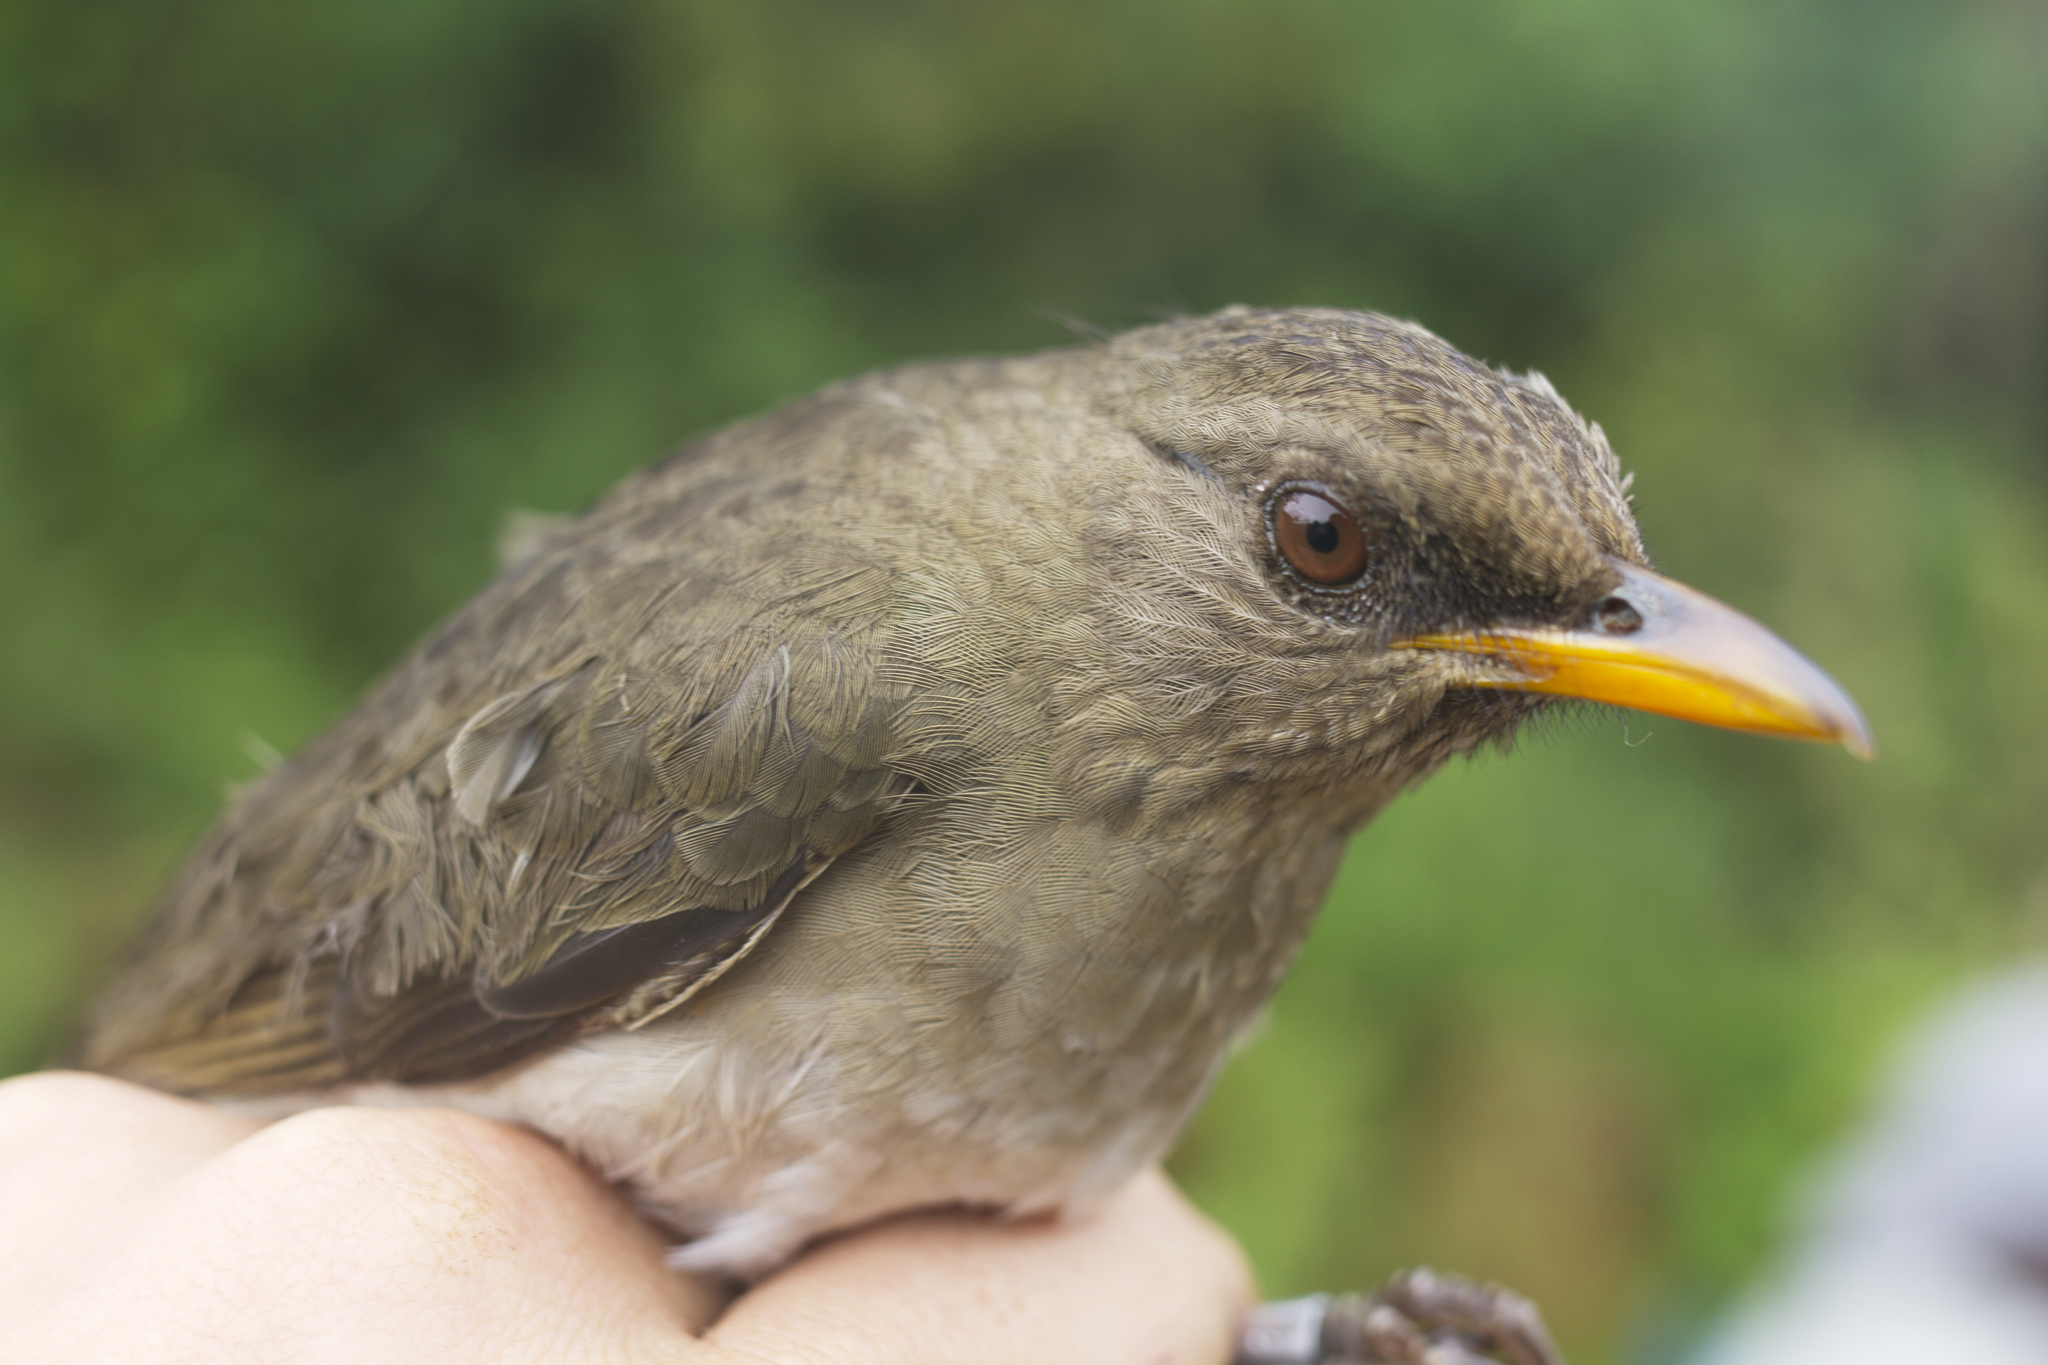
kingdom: Animalia
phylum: Chordata
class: Aves
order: Passeriformes
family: Turdidae
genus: Turdus
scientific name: Turdus pelios
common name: African thrush
